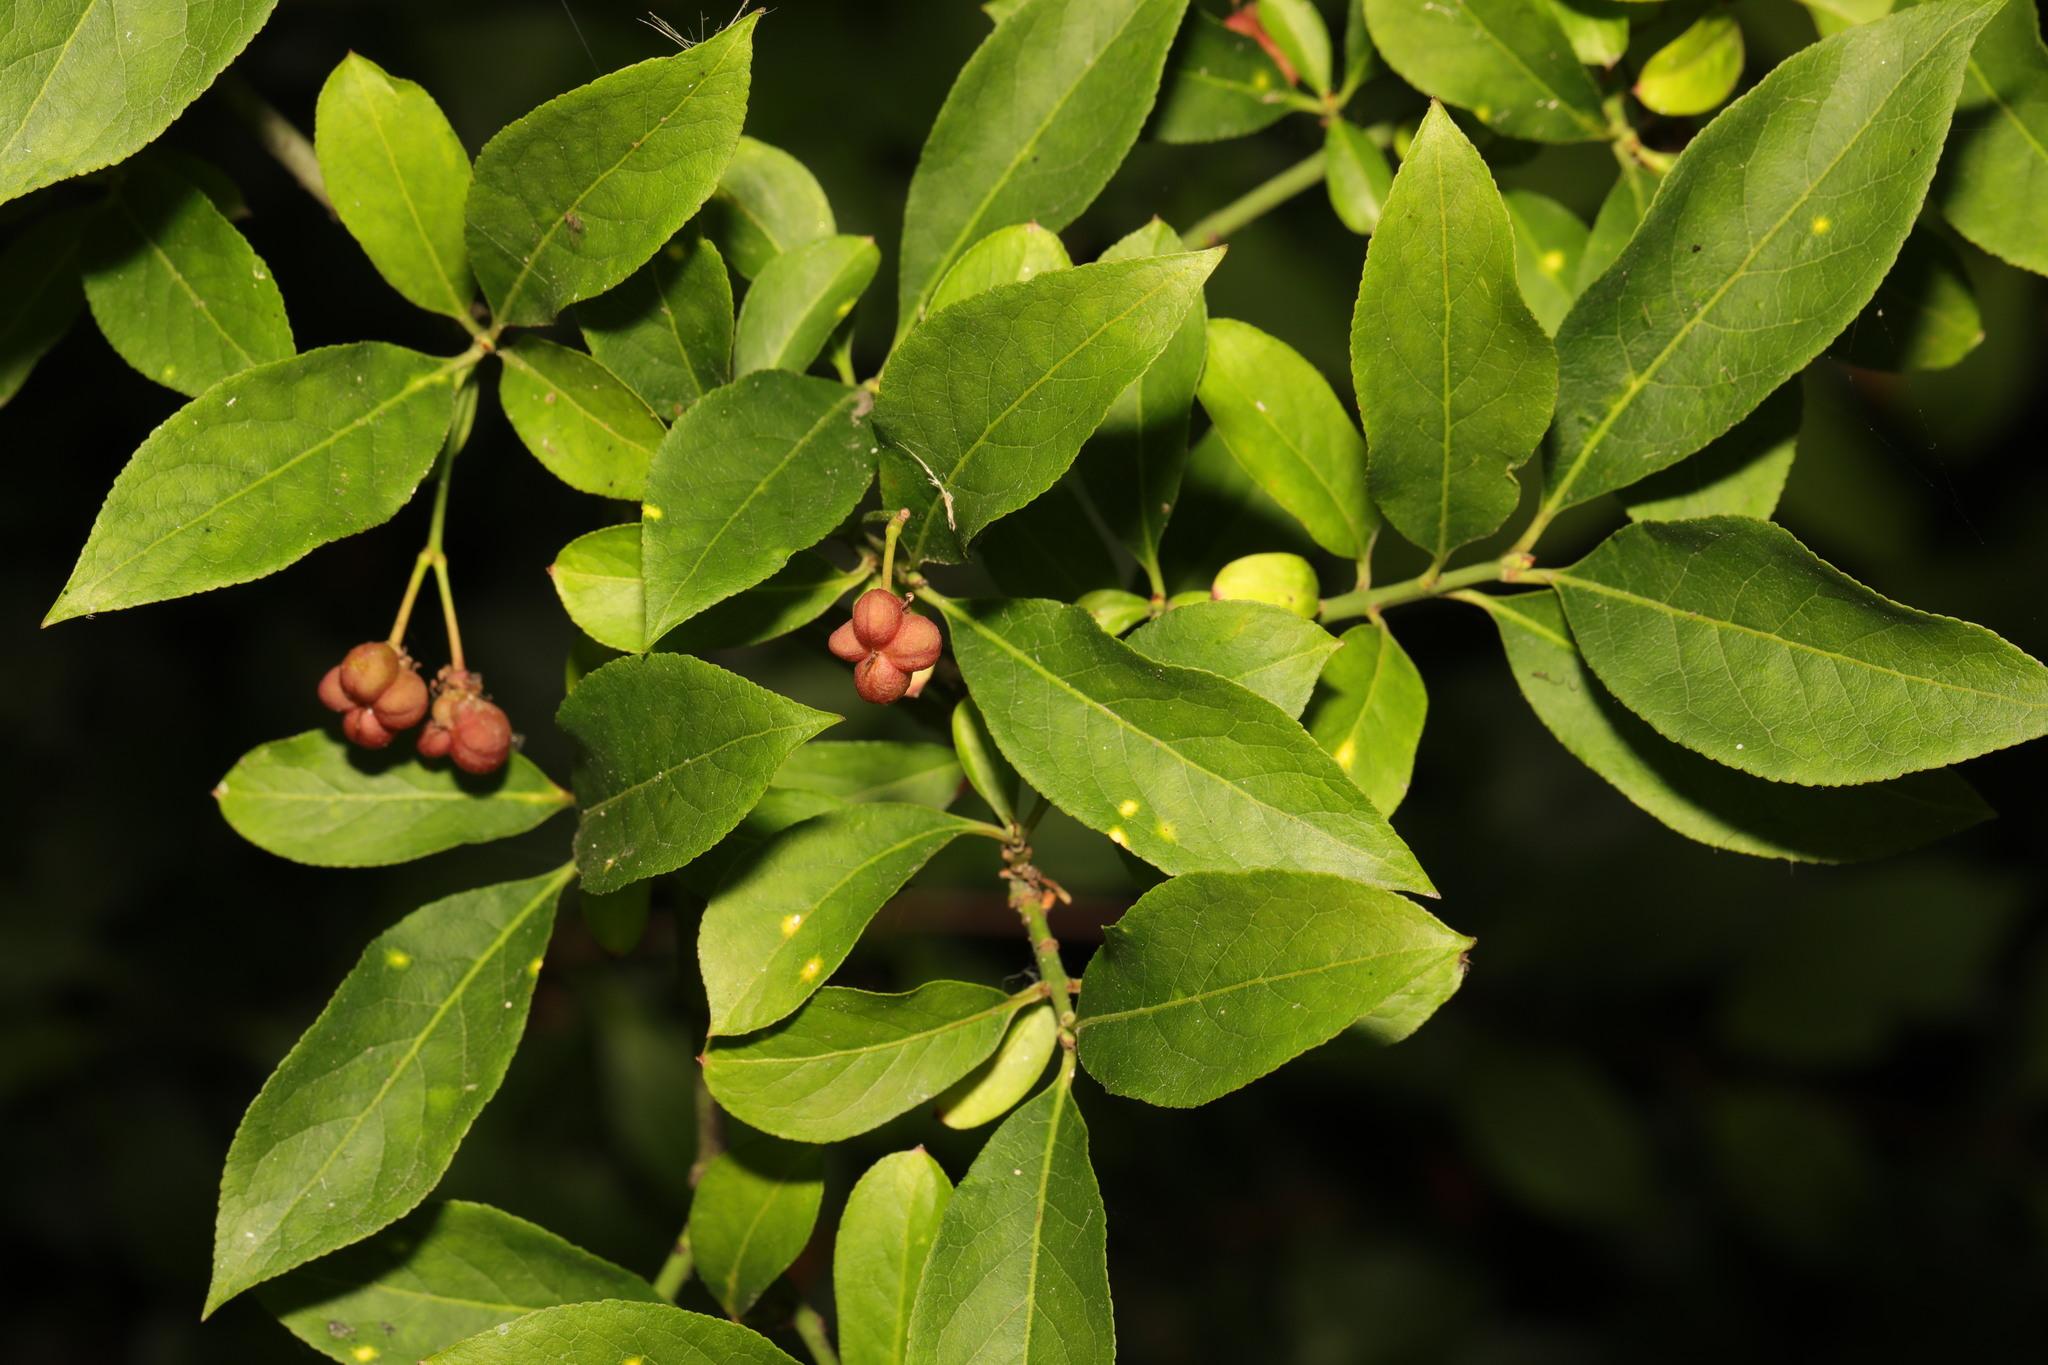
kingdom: Plantae
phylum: Tracheophyta
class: Magnoliopsida
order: Celastrales
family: Celastraceae
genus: Euonymus
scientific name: Euonymus europaeus
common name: Spindle
